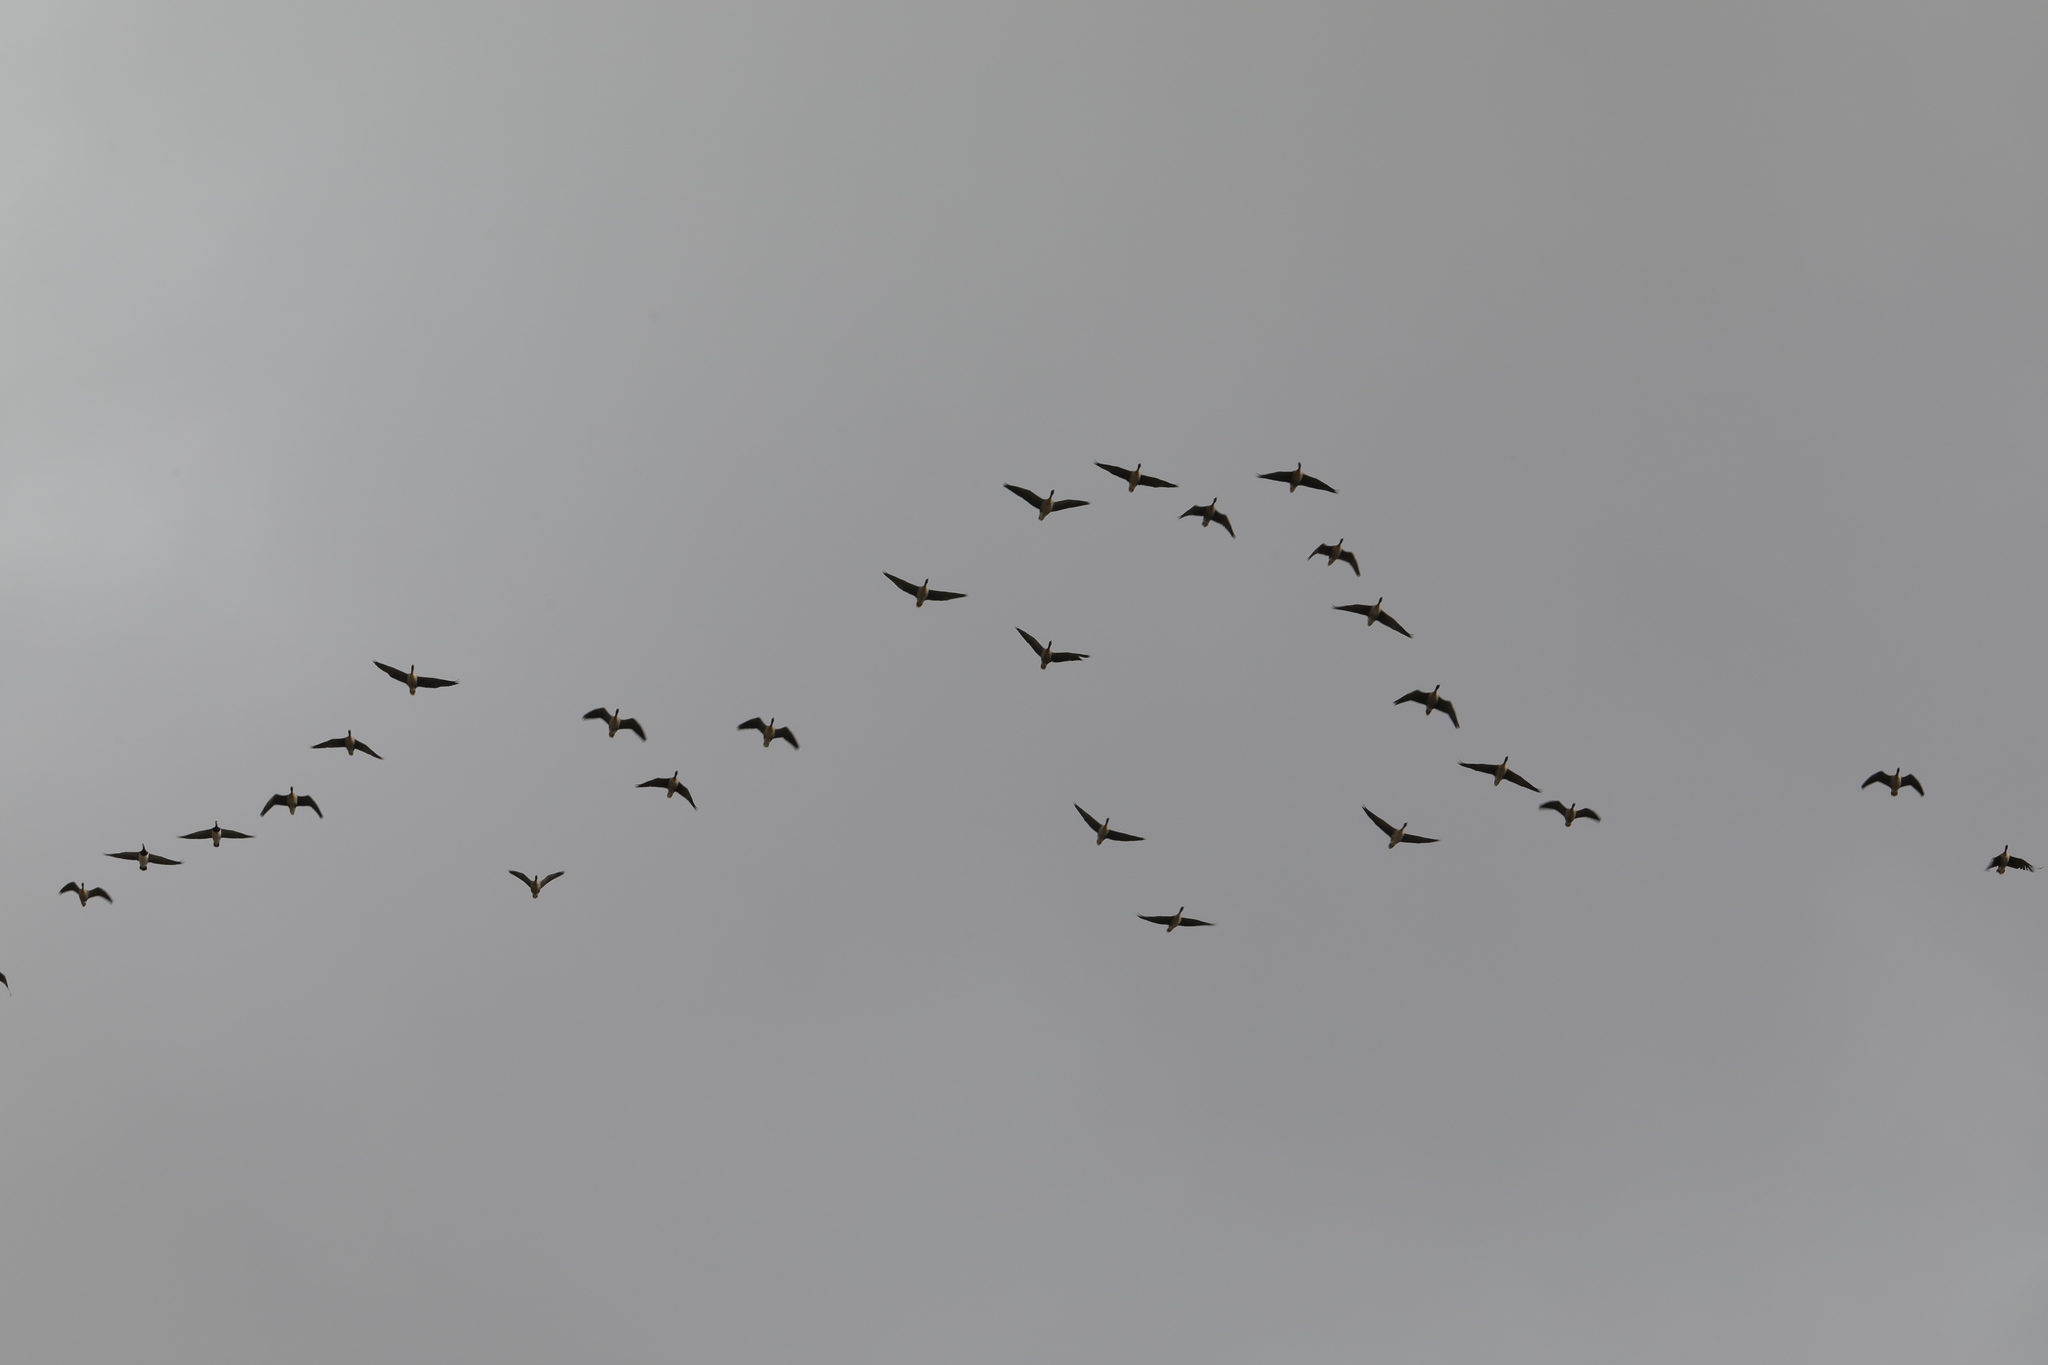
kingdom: Animalia
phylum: Chordata
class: Aves
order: Anseriformes
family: Anatidae
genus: Anser
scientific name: Anser brachyrhynchus
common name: Pink-footed goose
